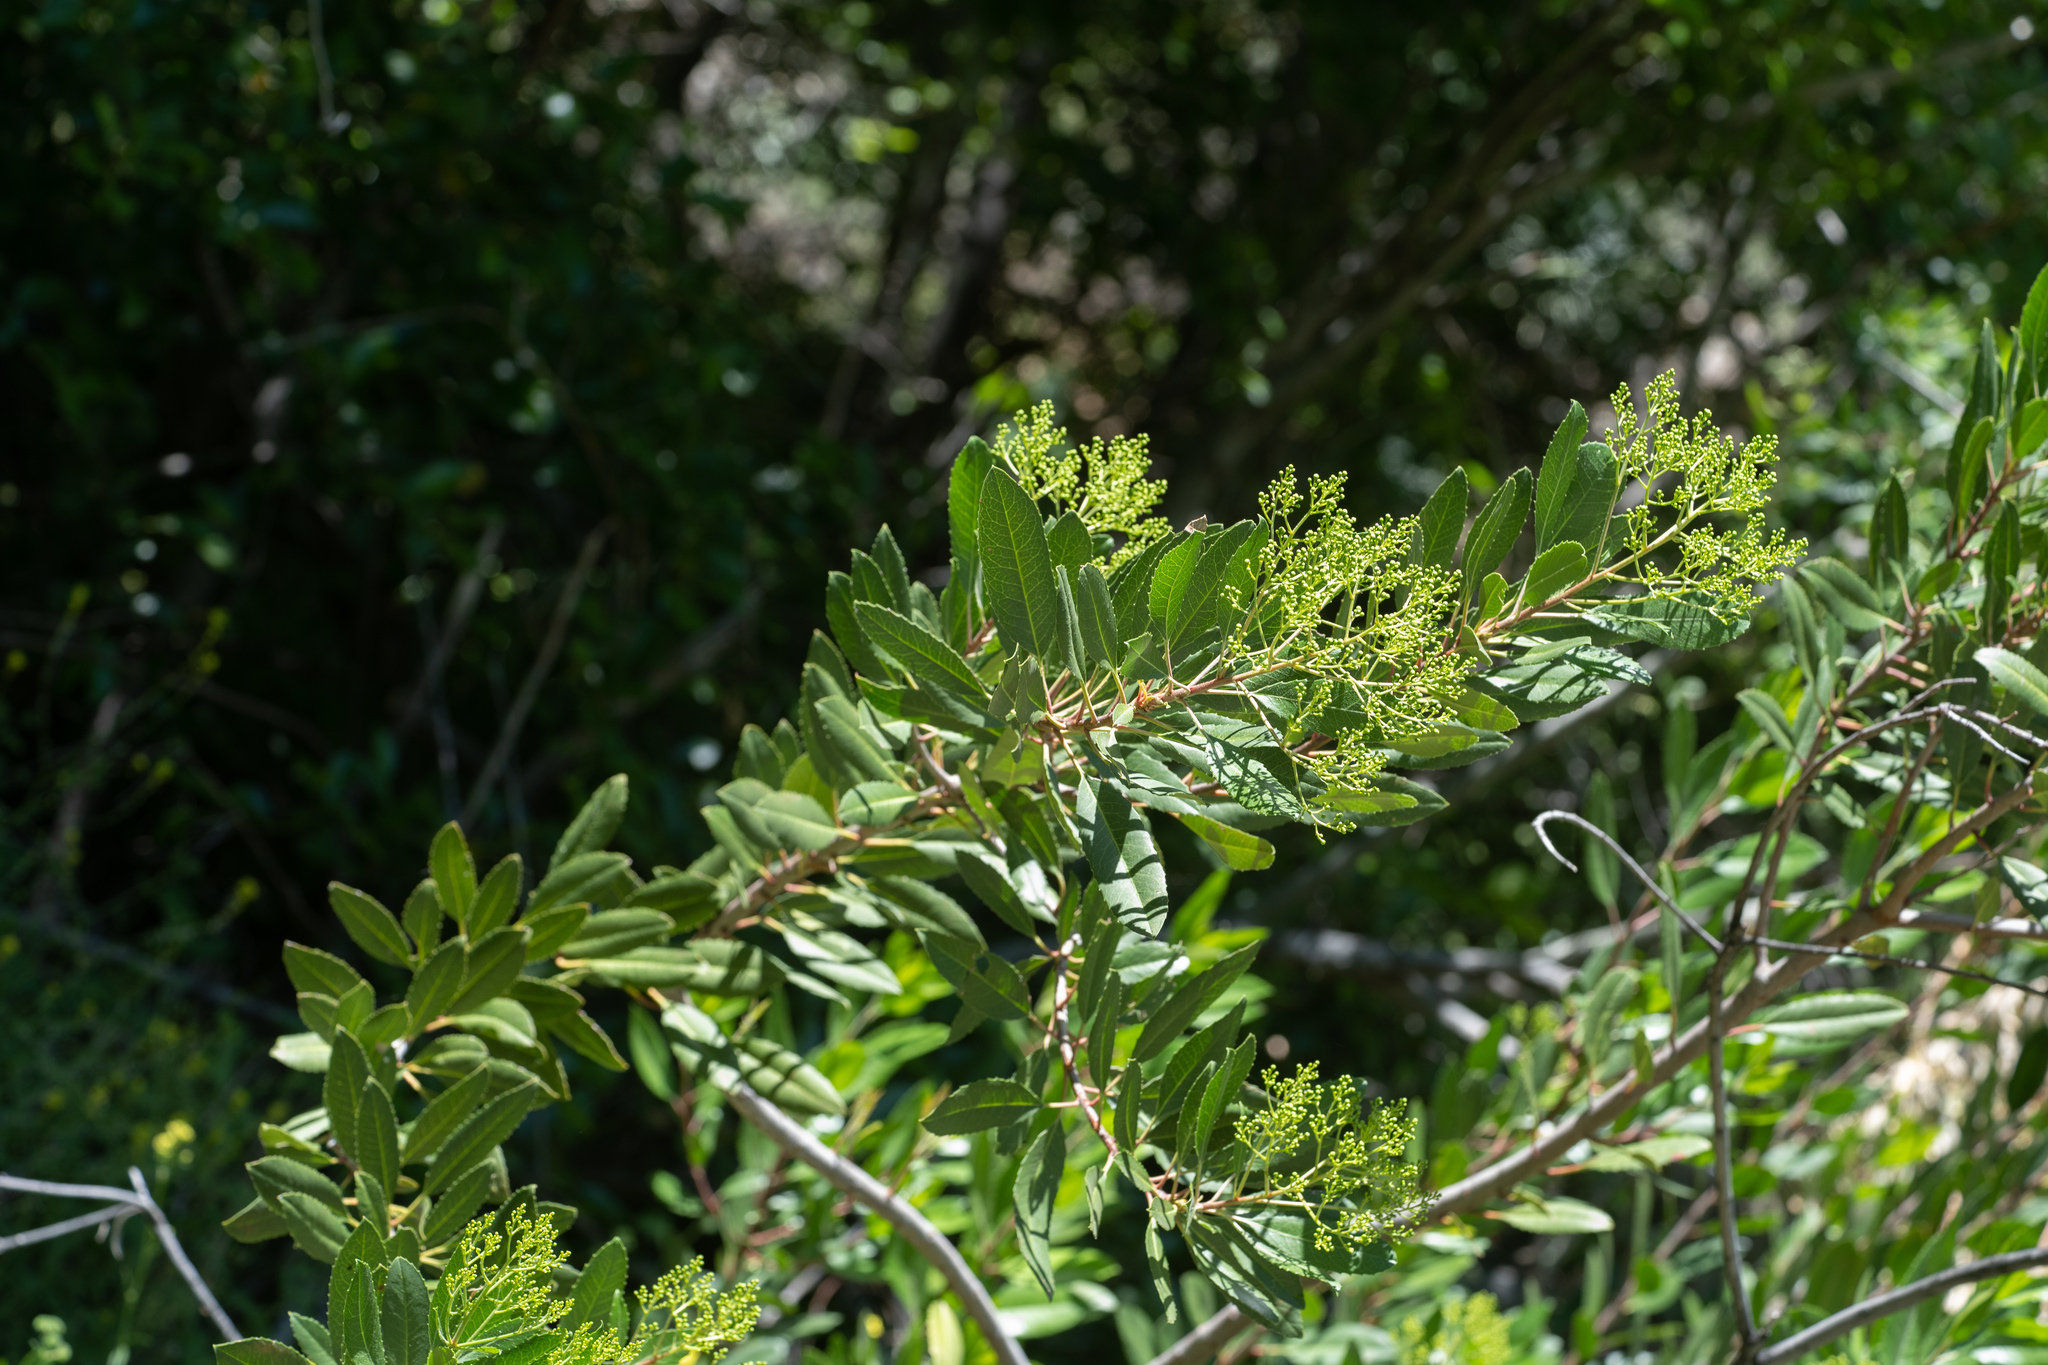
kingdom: Plantae
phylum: Tracheophyta
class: Magnoliopsida
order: Rosales
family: Rosaceae
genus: Heteromeles
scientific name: Heteromeles arbutifolia
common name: California-holly
